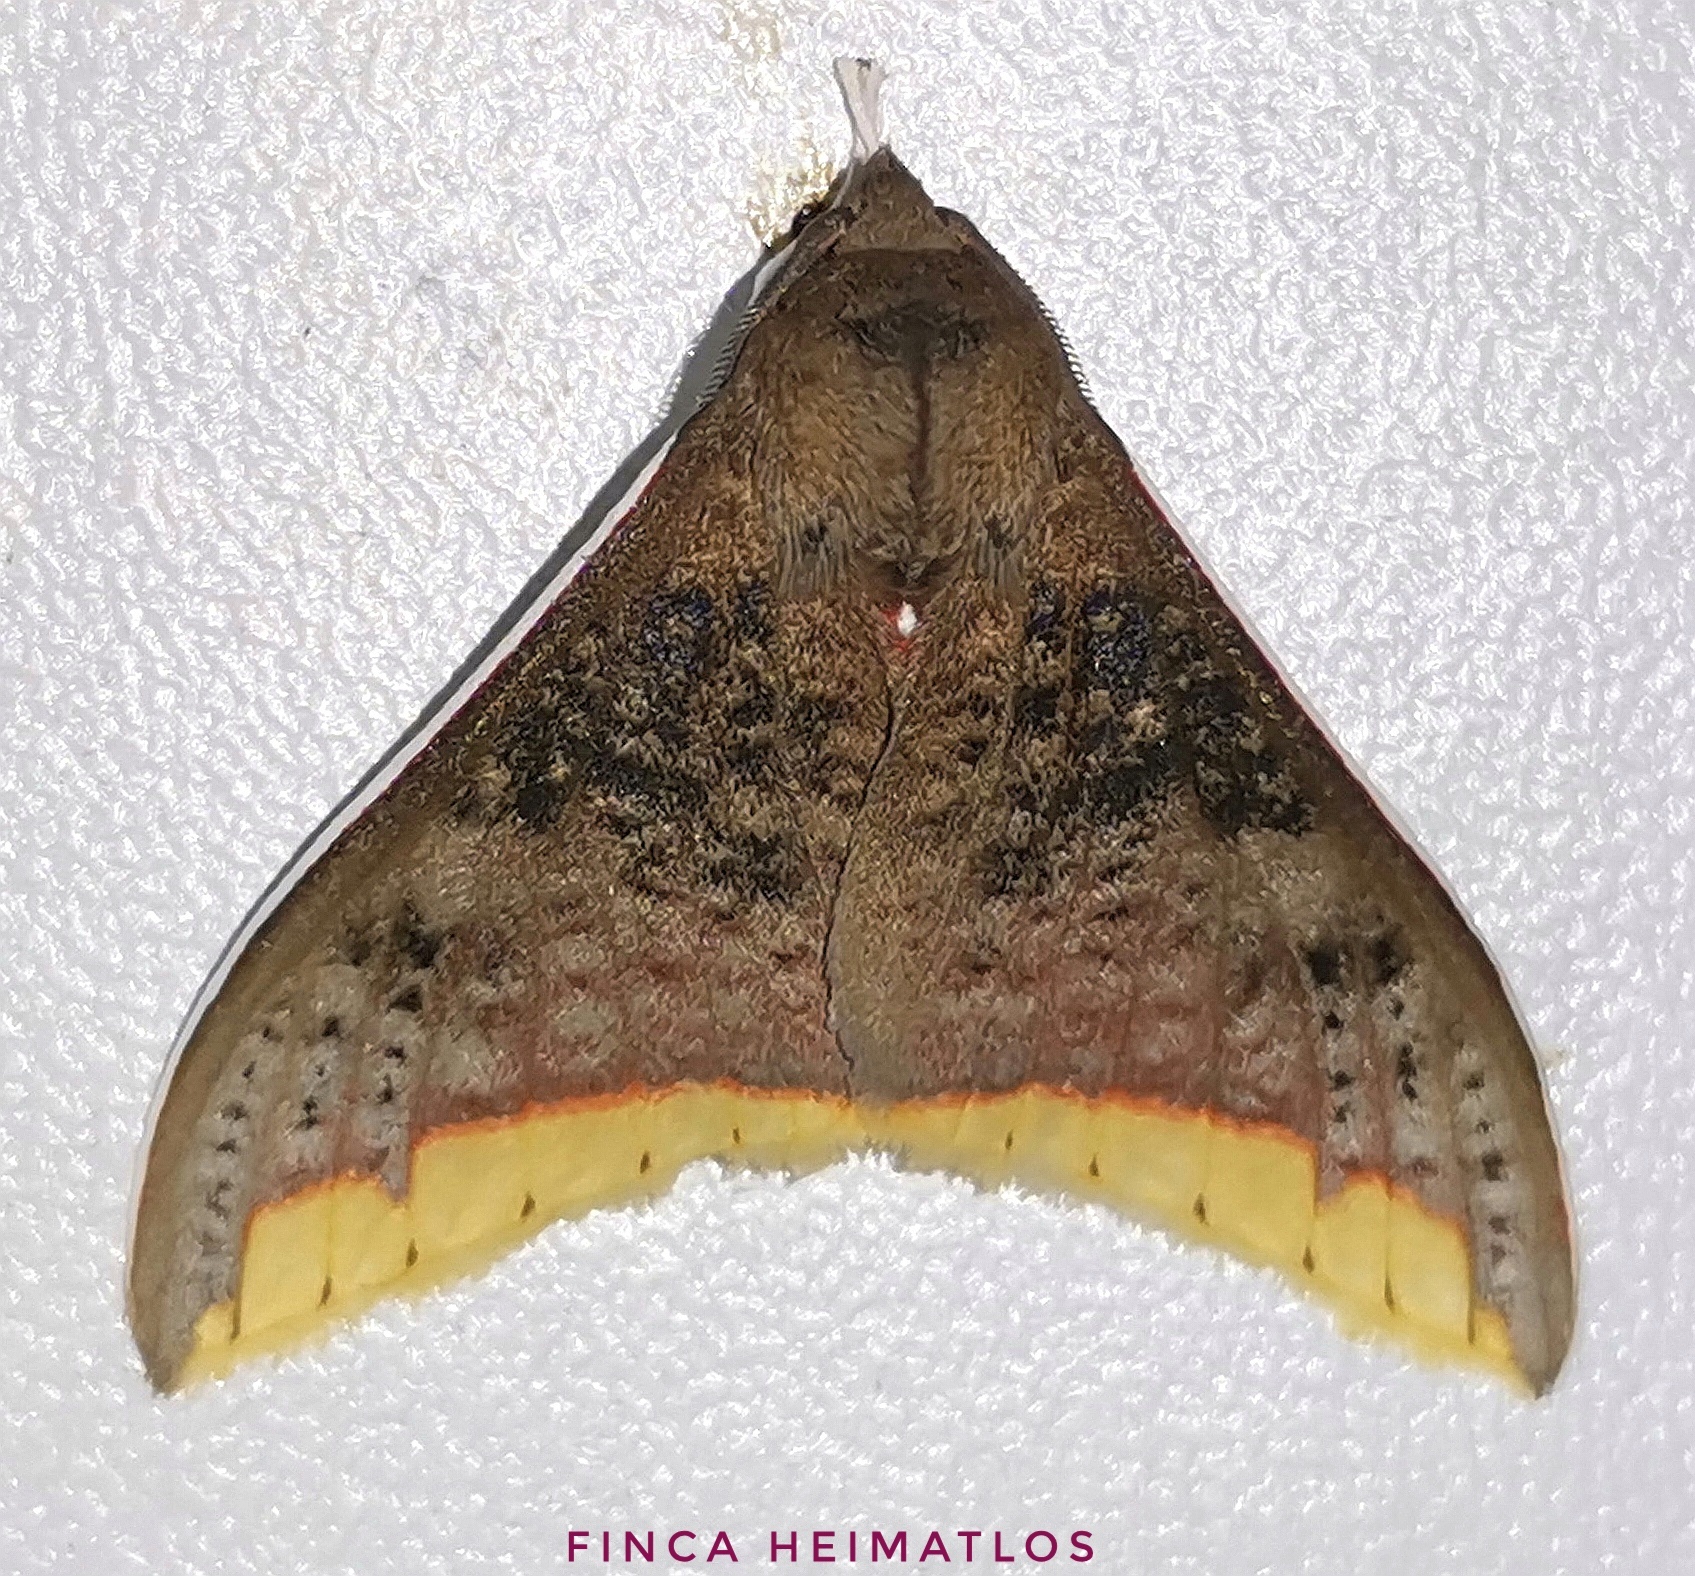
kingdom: Animalia
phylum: Arthropoda
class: Insecta
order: Lepidoptera
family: Erebidae
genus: Arctiarpia
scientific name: Arctiarpia melanopasta
